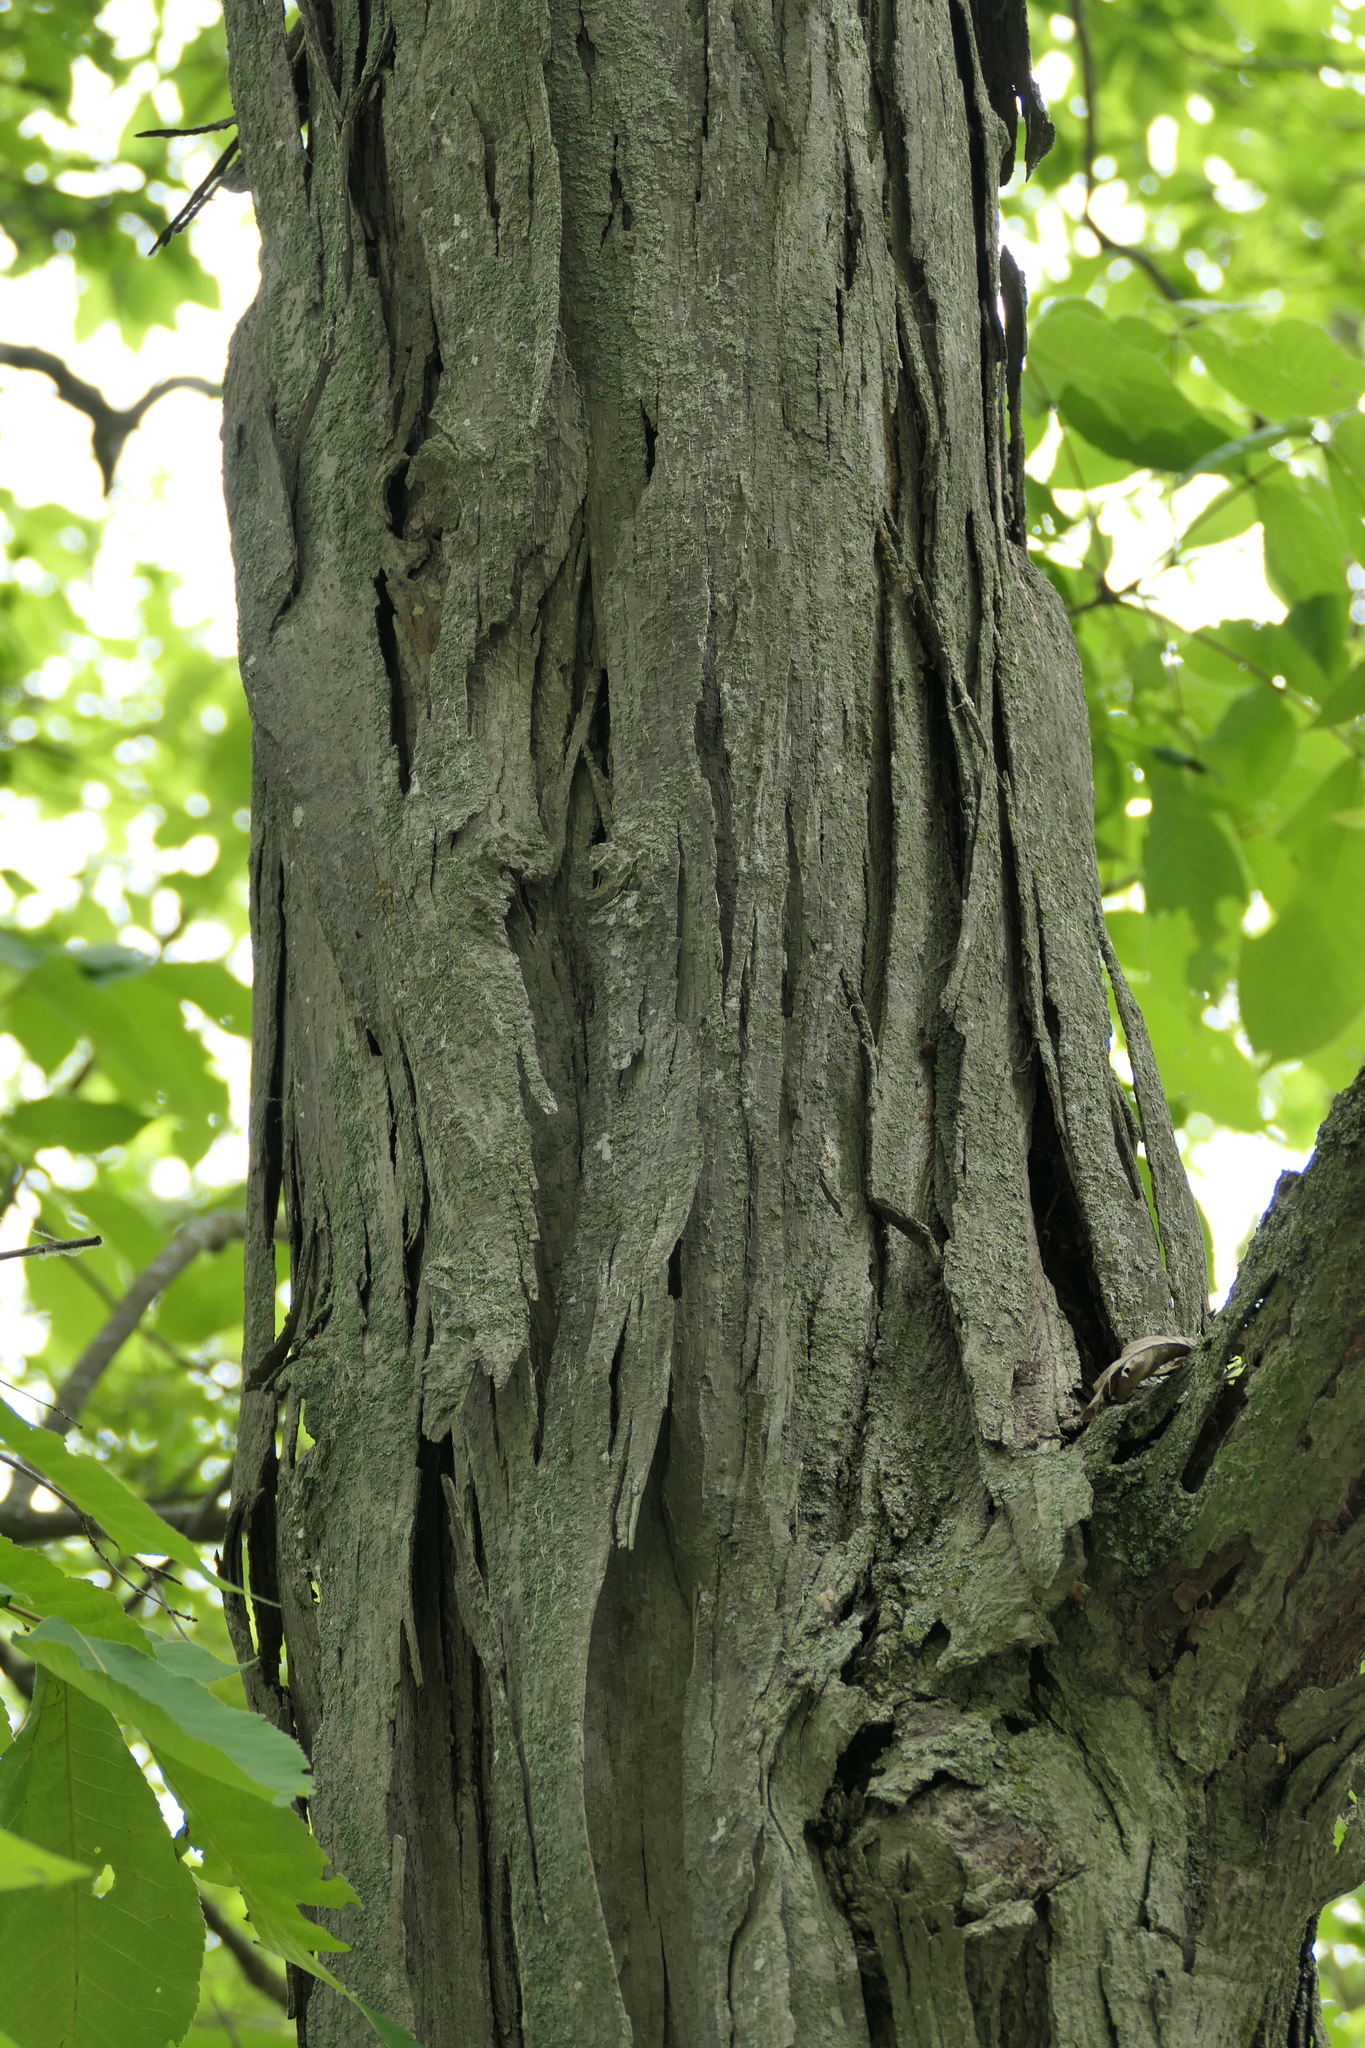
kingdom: Plantae
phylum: Tracheophyta
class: Magnoliopsida
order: Fagales
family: Juglandaceae
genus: Carya
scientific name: Carya ovata
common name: Shagbark hickory
